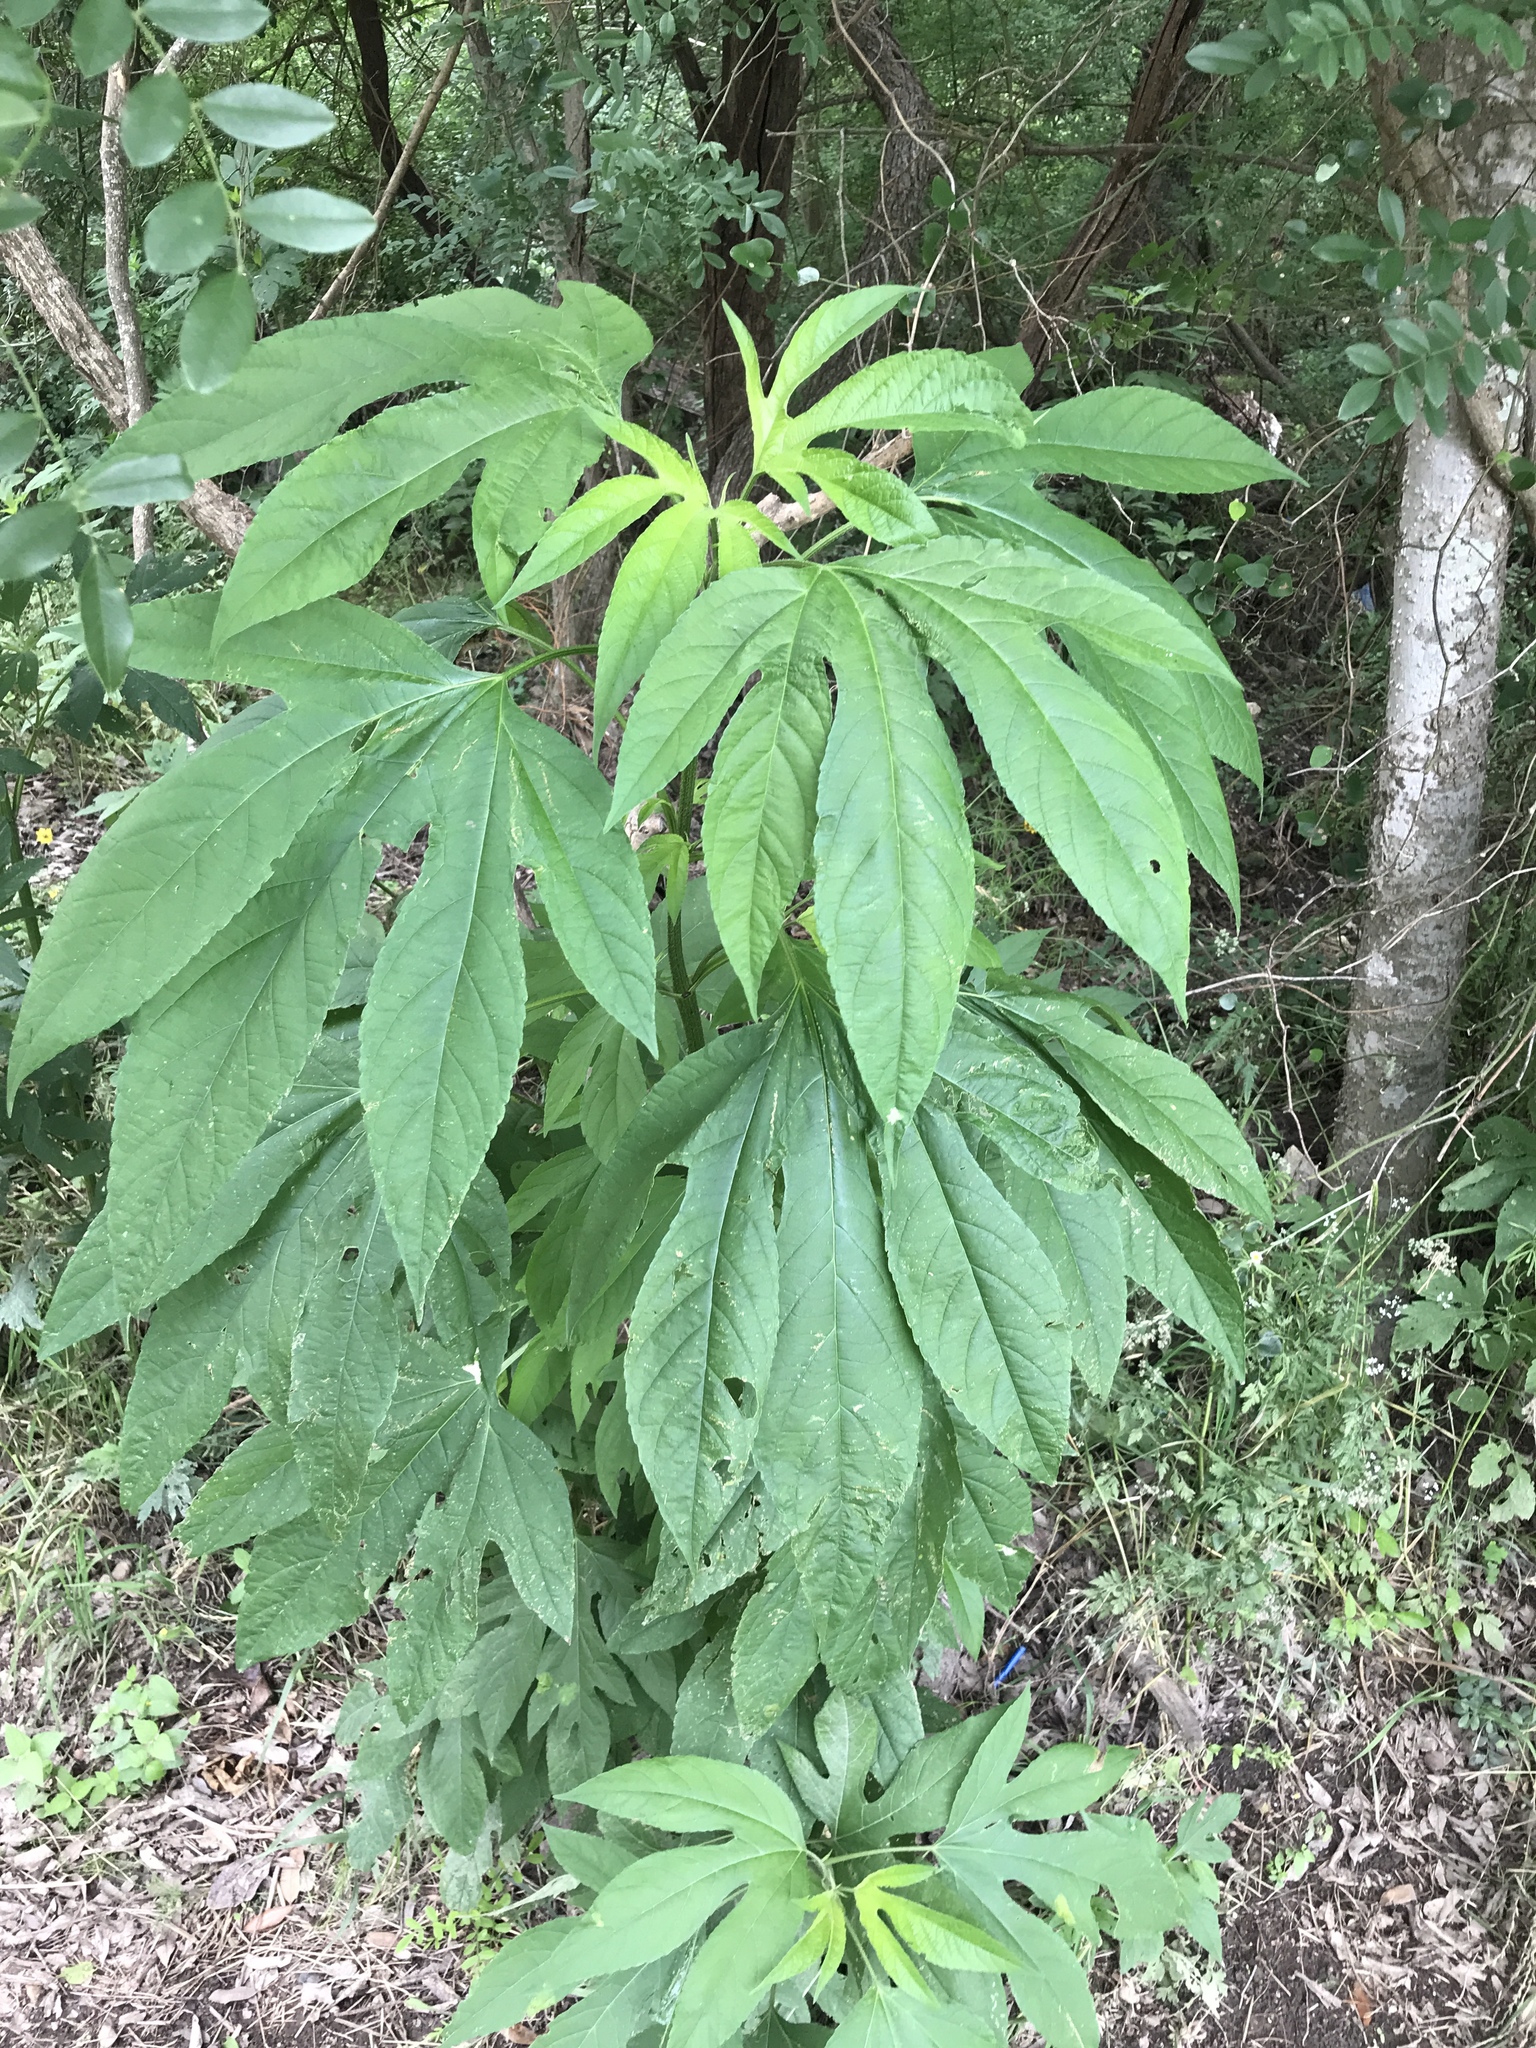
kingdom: Plantae
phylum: Tracheophyta
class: Magnoliopsida
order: Asterales
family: Asteraceae
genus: Ambrosia
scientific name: Ambrosia trifida
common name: Giant ragweed
